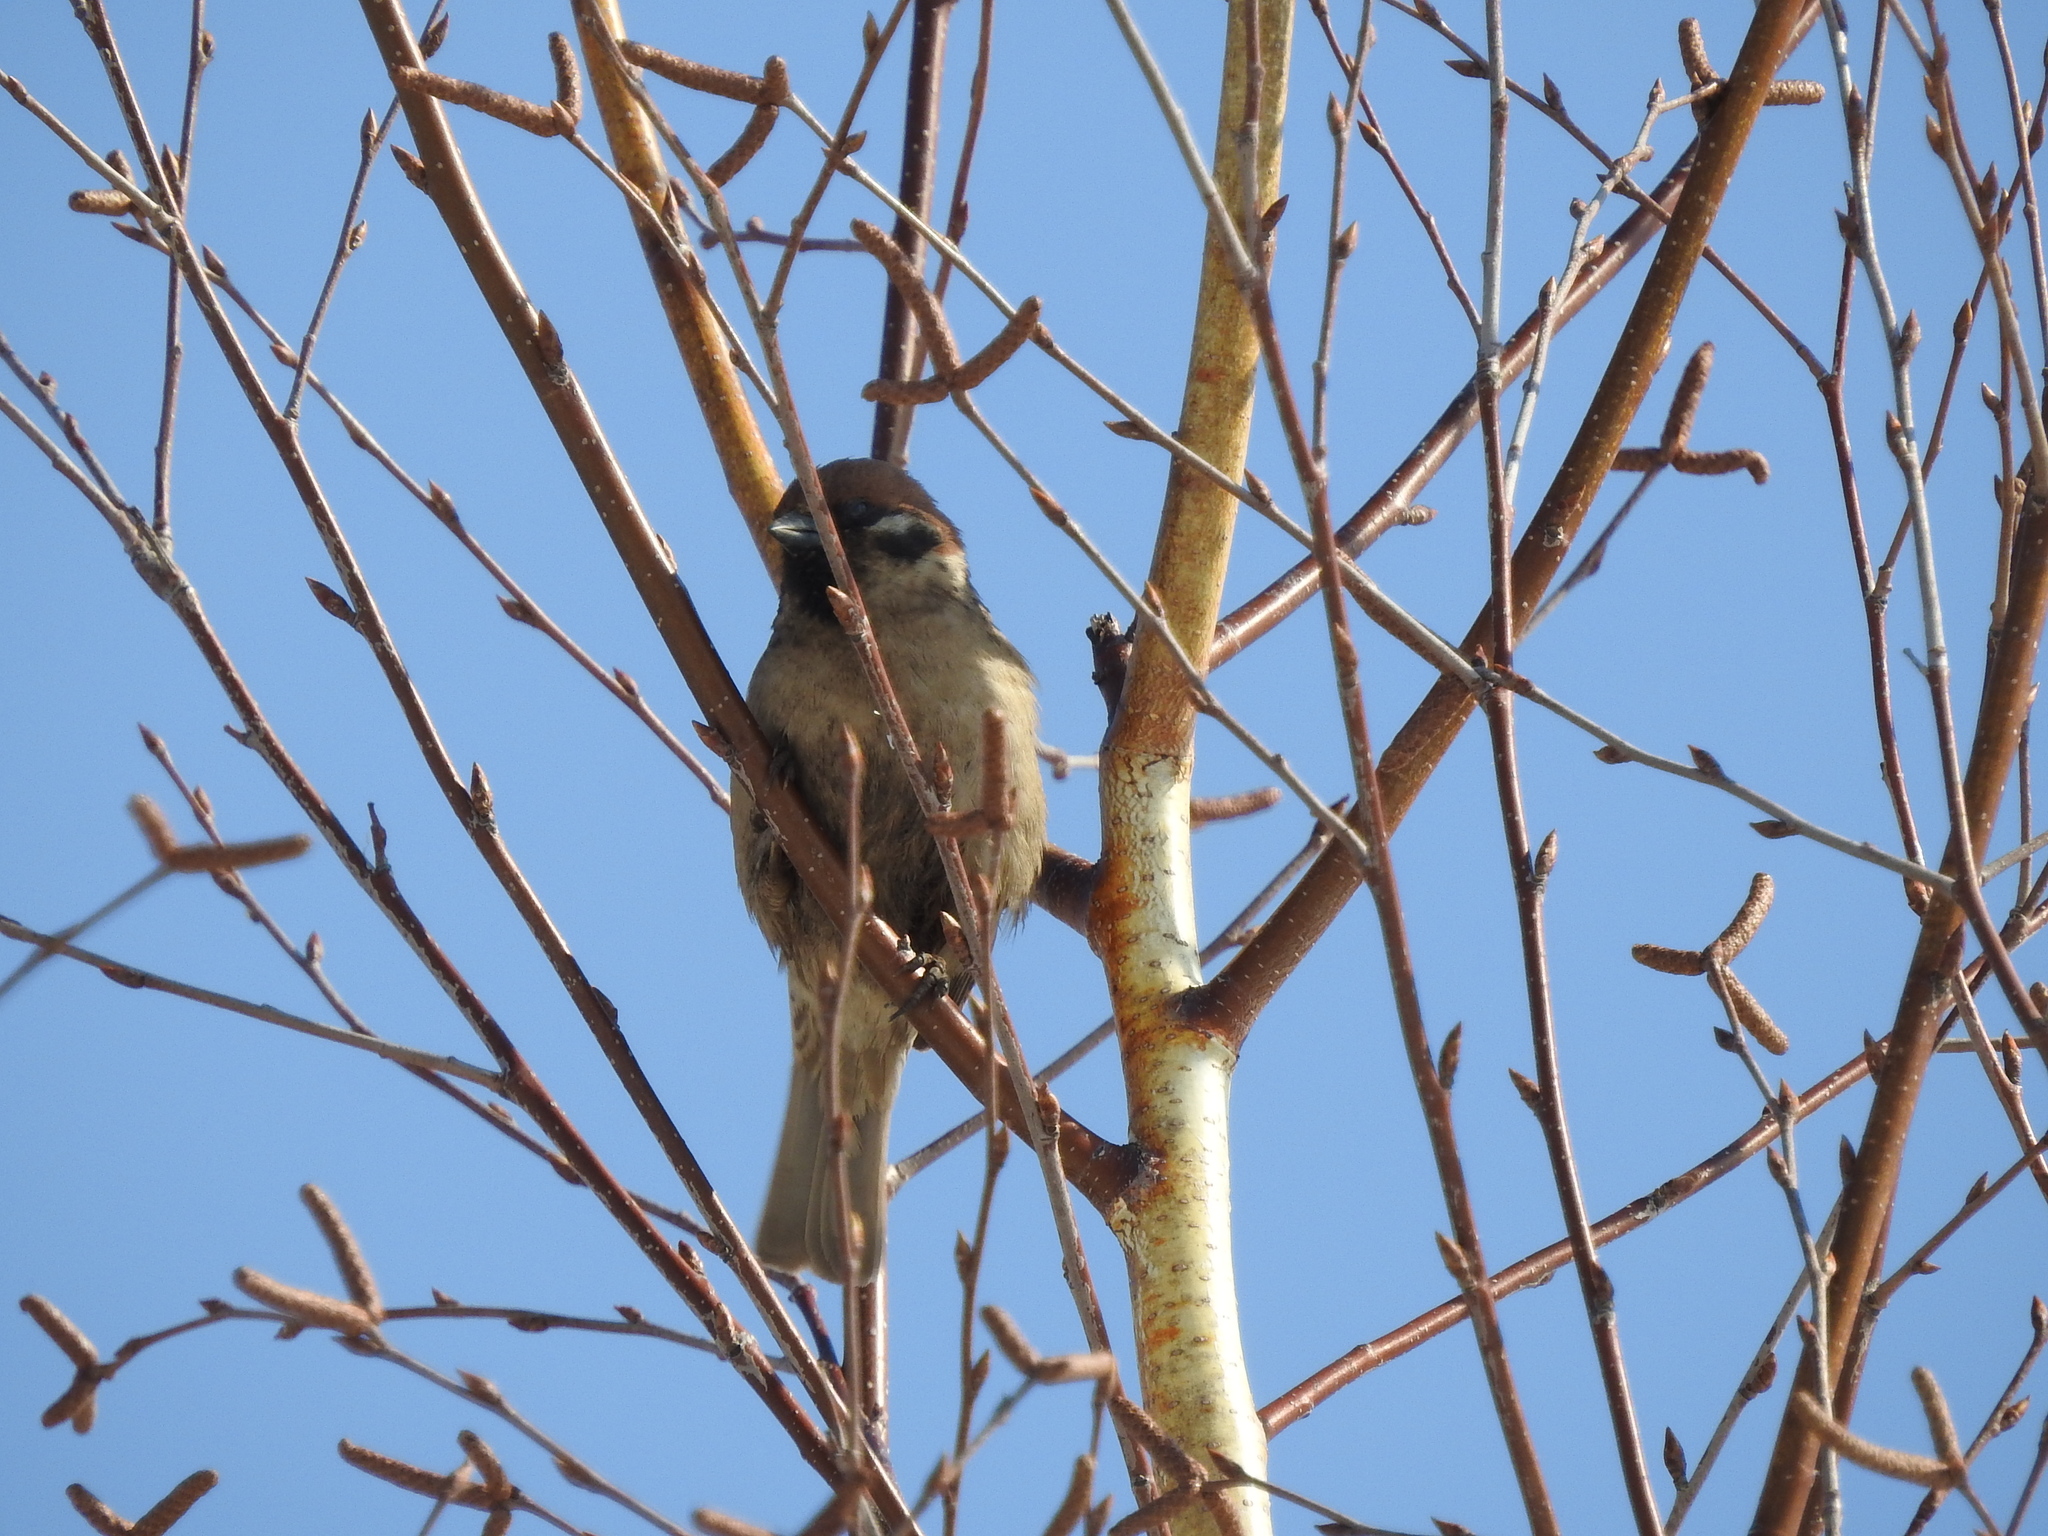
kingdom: Animalia
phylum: Chordata
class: Aves
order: Passeriformes
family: Passeridae
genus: Passer
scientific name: Passer montanus
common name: Eurasian tree sparrow
